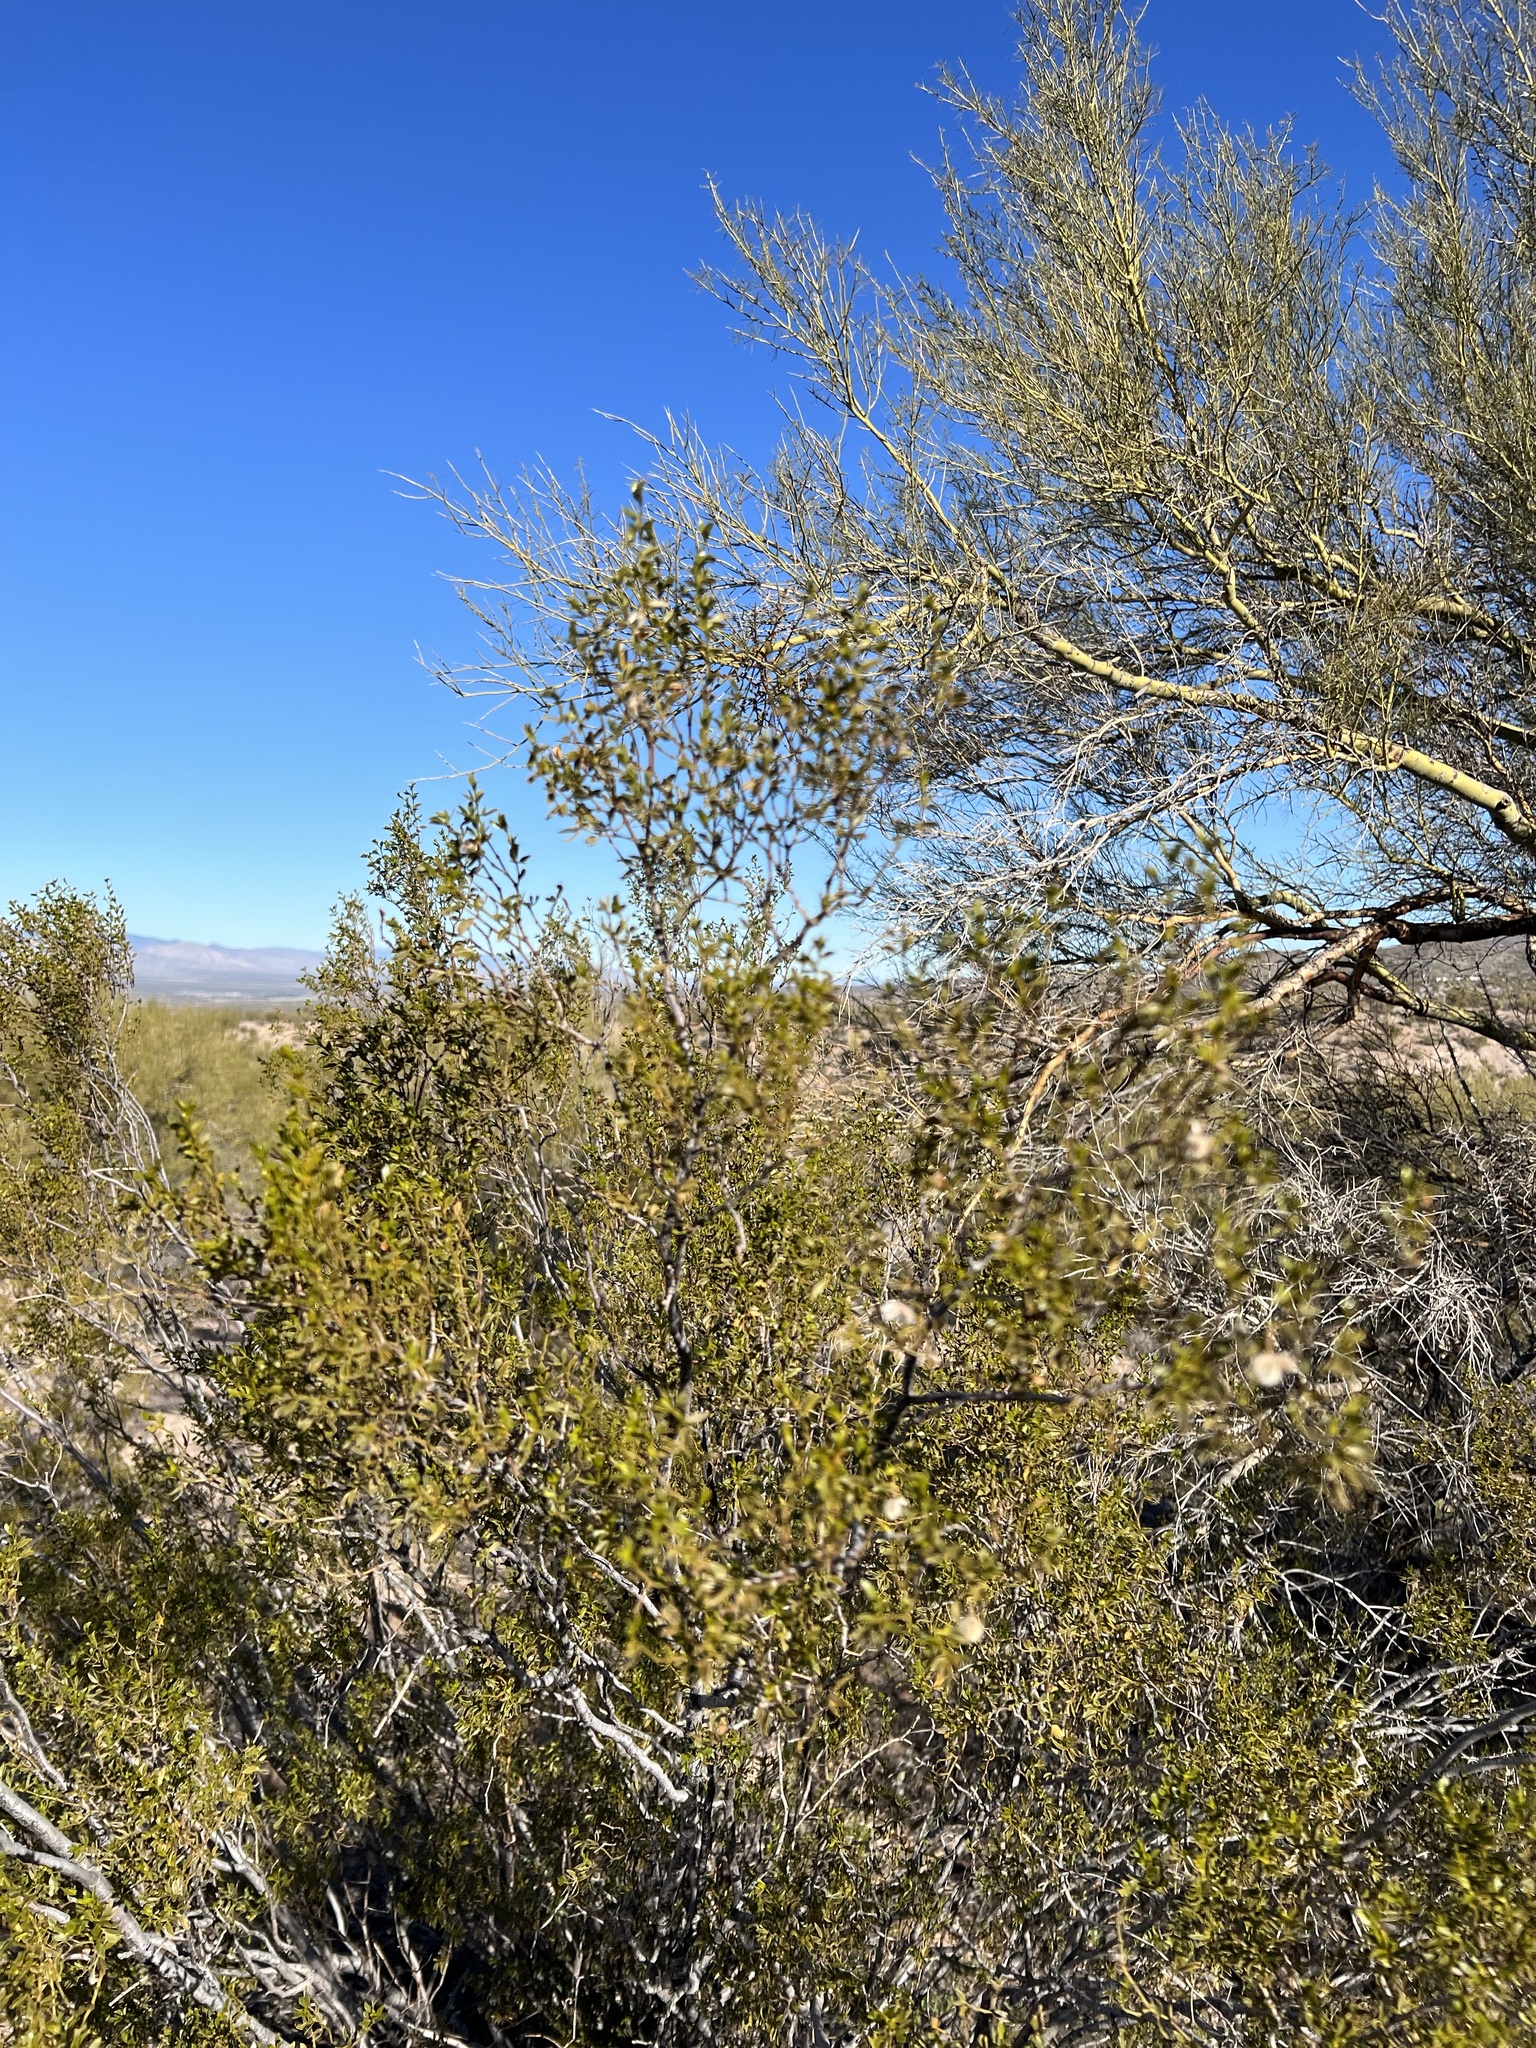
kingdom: Plantae
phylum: Tracheophyta
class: Magnoliopsida
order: Zygophyllales
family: Zygophyllaceae
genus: Larrea
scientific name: Larrea tridentata
